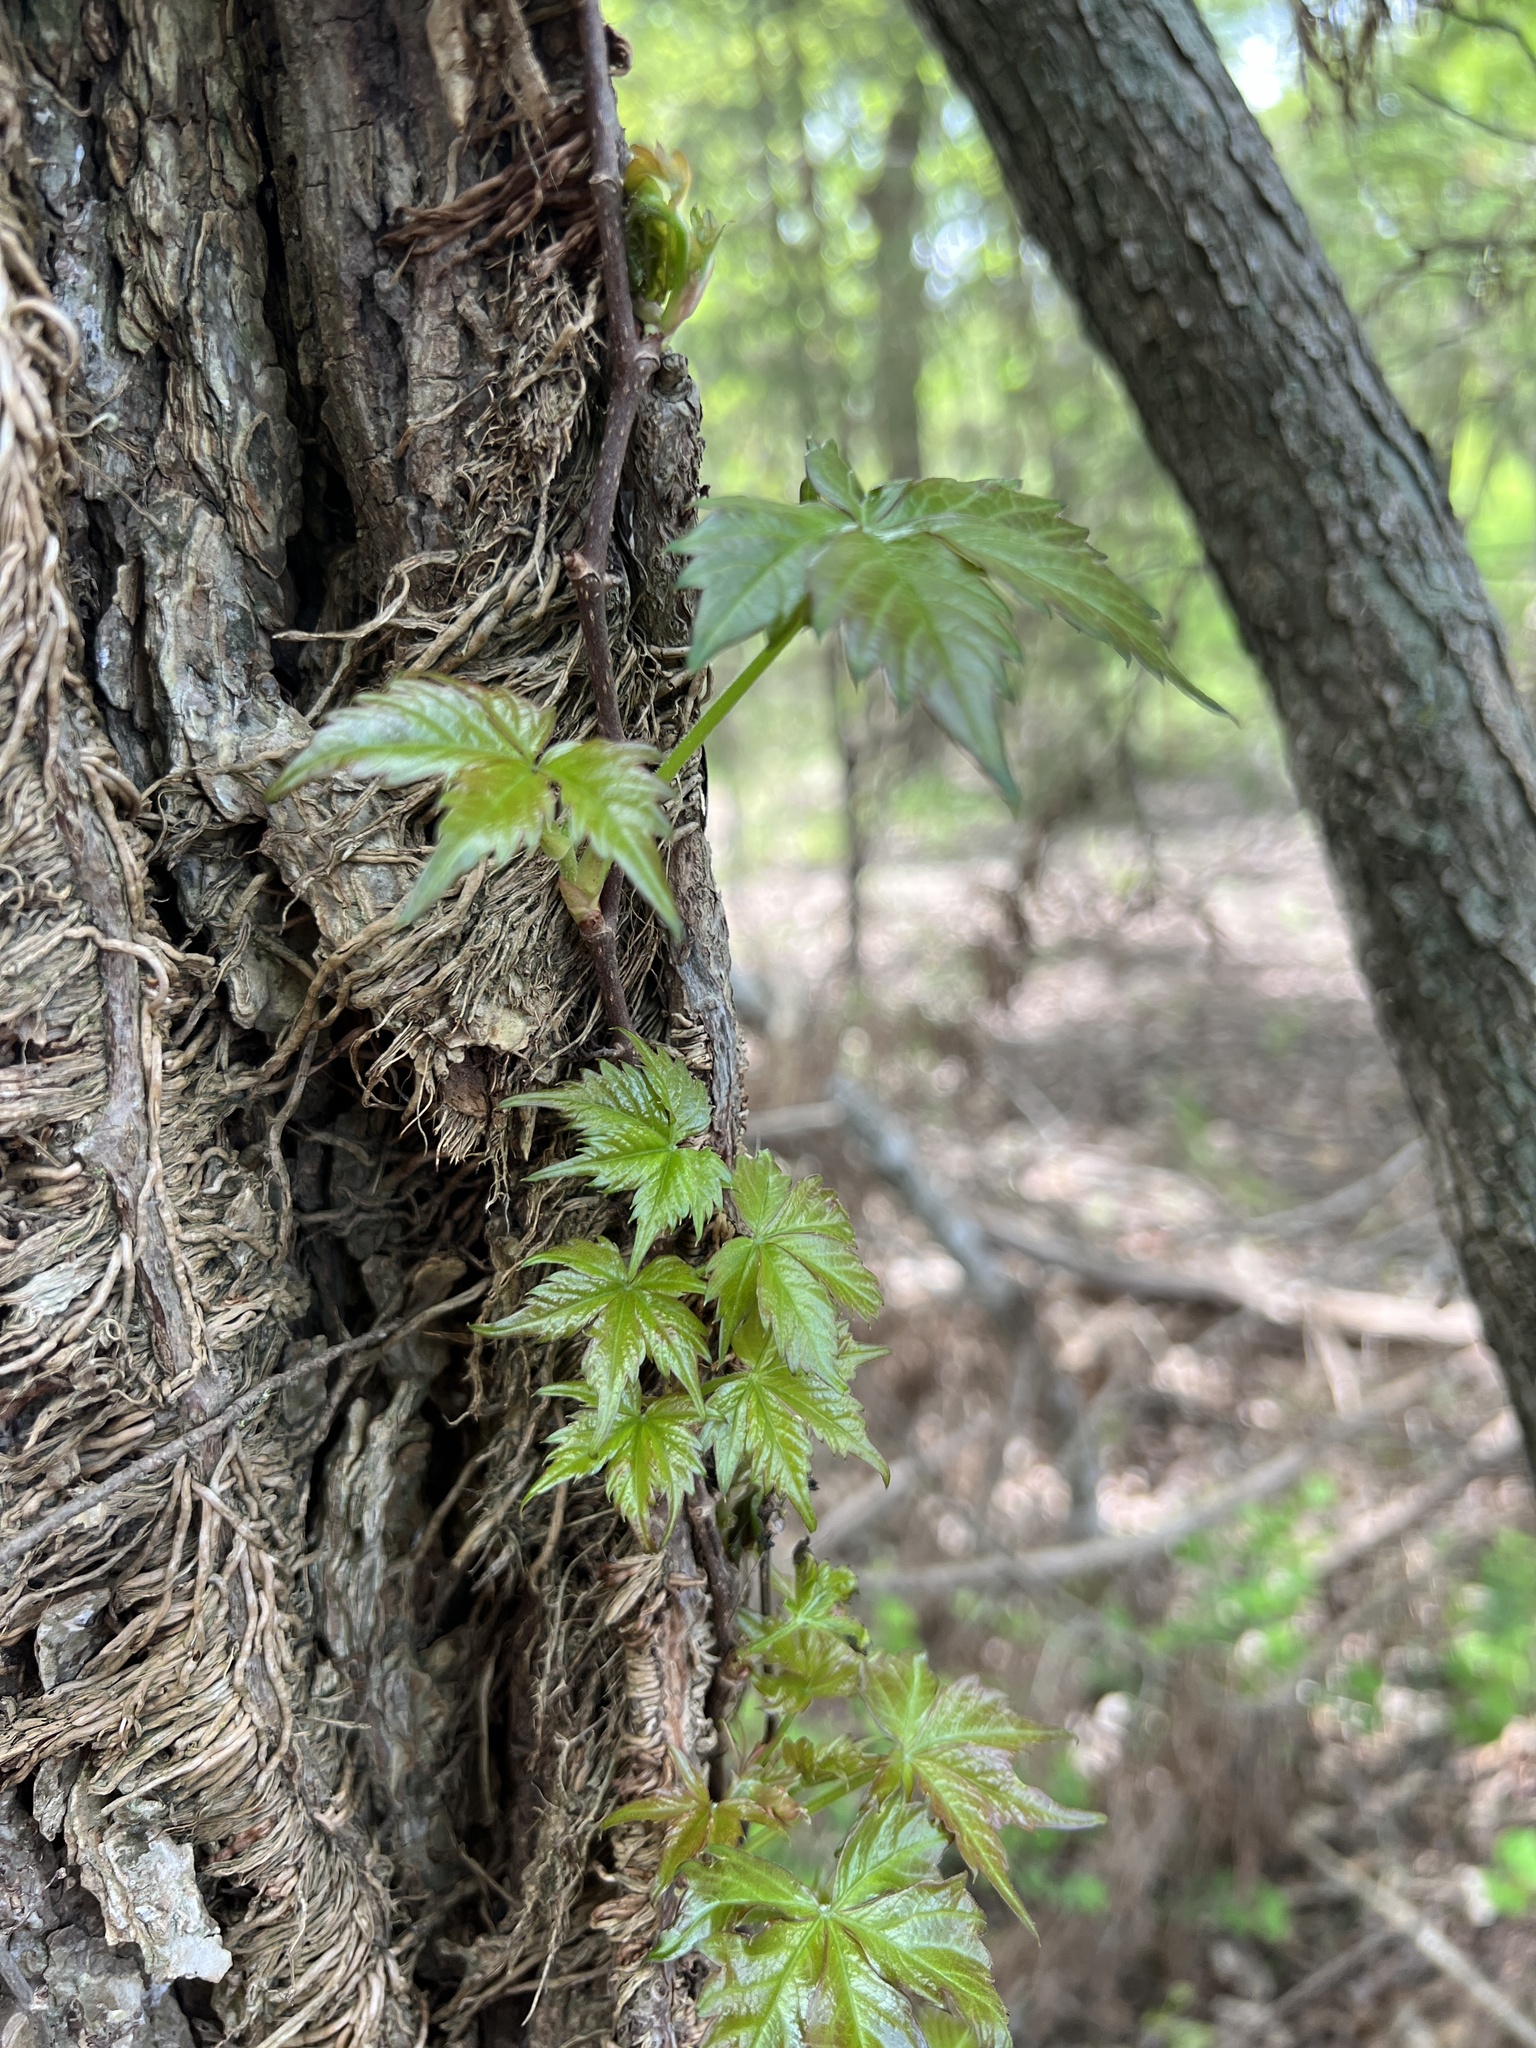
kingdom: Plantae
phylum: Tracheophyta
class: Magnoliopsida
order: Vitales
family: Vitaceae
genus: Parthenocissus
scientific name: Parthenocissus quinquefolia
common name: Virginia-creeper
